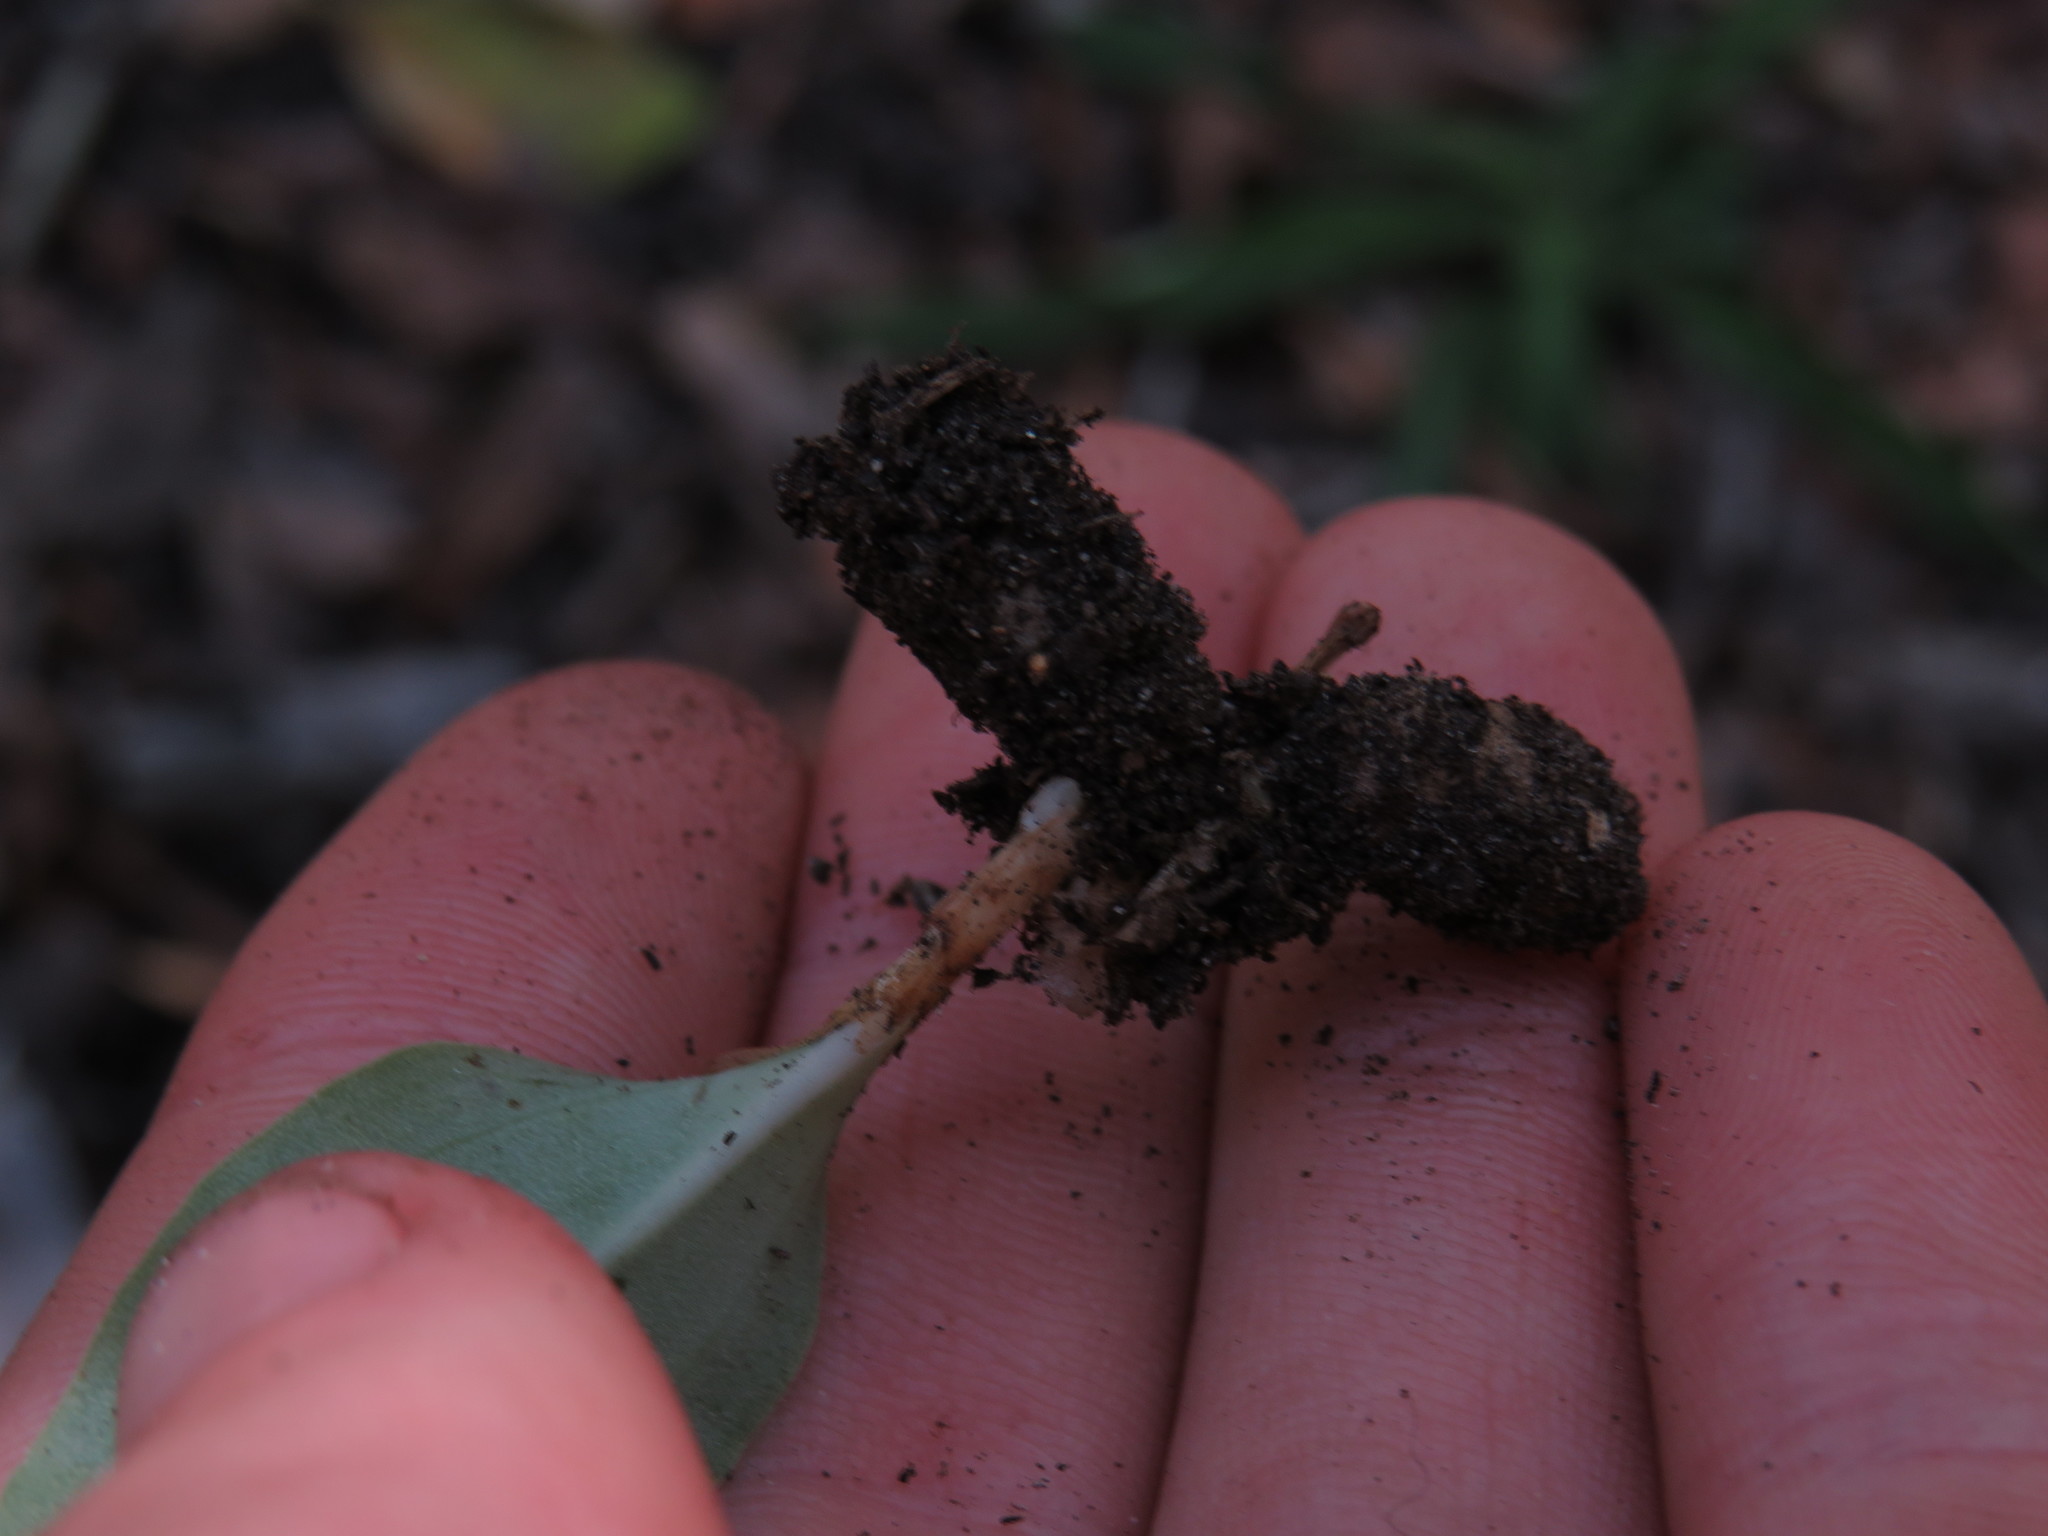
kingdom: Plantae
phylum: Tracheophyta
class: Liliopsida
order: Asparagales
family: Orchidaceae
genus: Habenaria
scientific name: Habenaria arenaria
